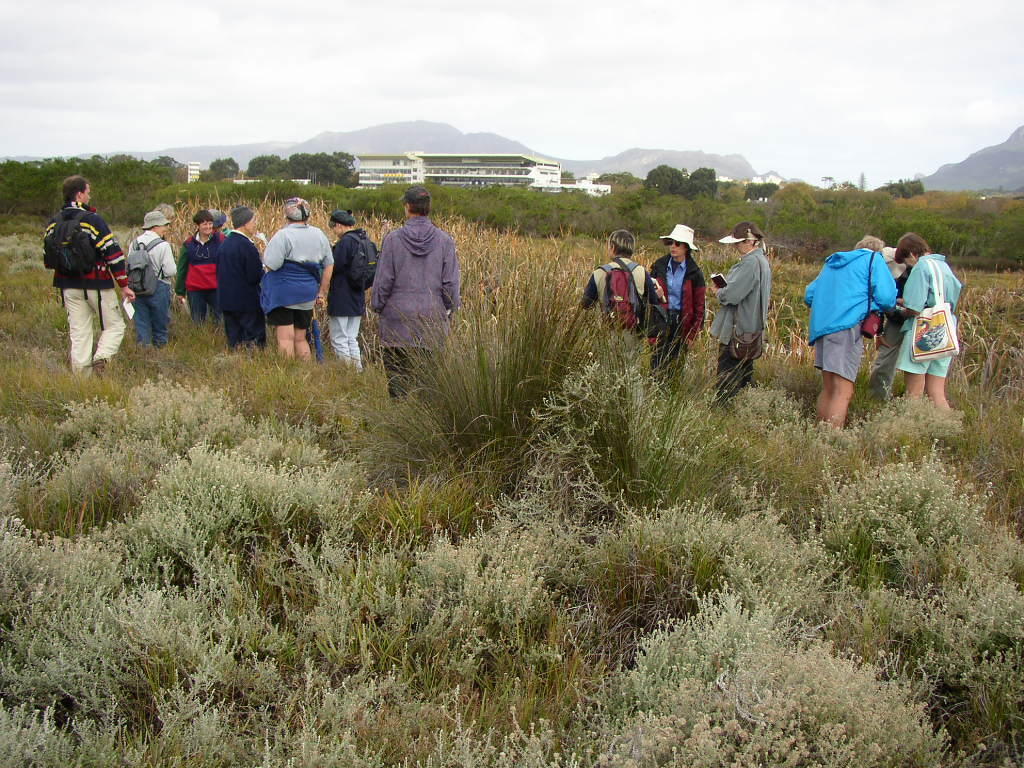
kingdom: Plantae
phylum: Tracheophyta
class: Magnoliopsida
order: Asterales
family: Asteraceae
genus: Seriphium
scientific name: Seriphium plumosum
